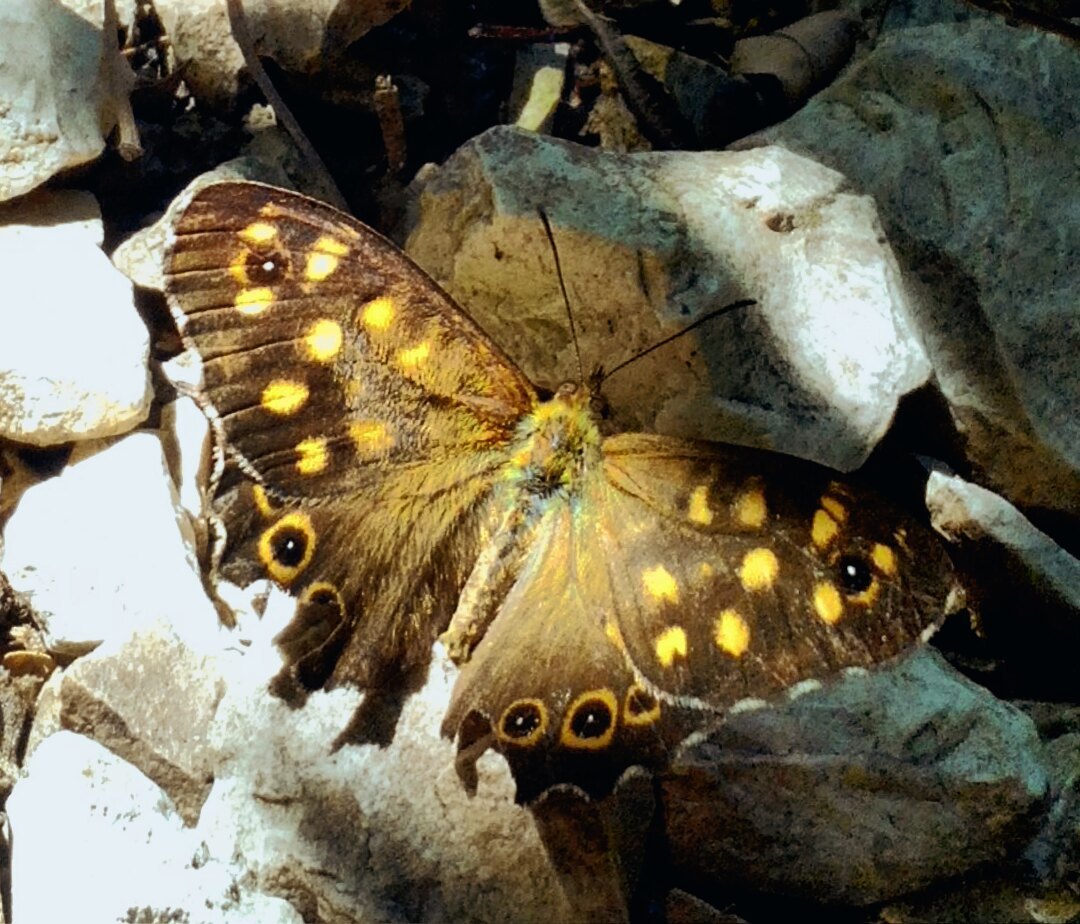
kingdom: Animalia
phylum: Arthropoda
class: Insecta
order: Lepidoptera
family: Nymphalidae
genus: Pararge
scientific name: Pararge aegeria
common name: Speckled wood
